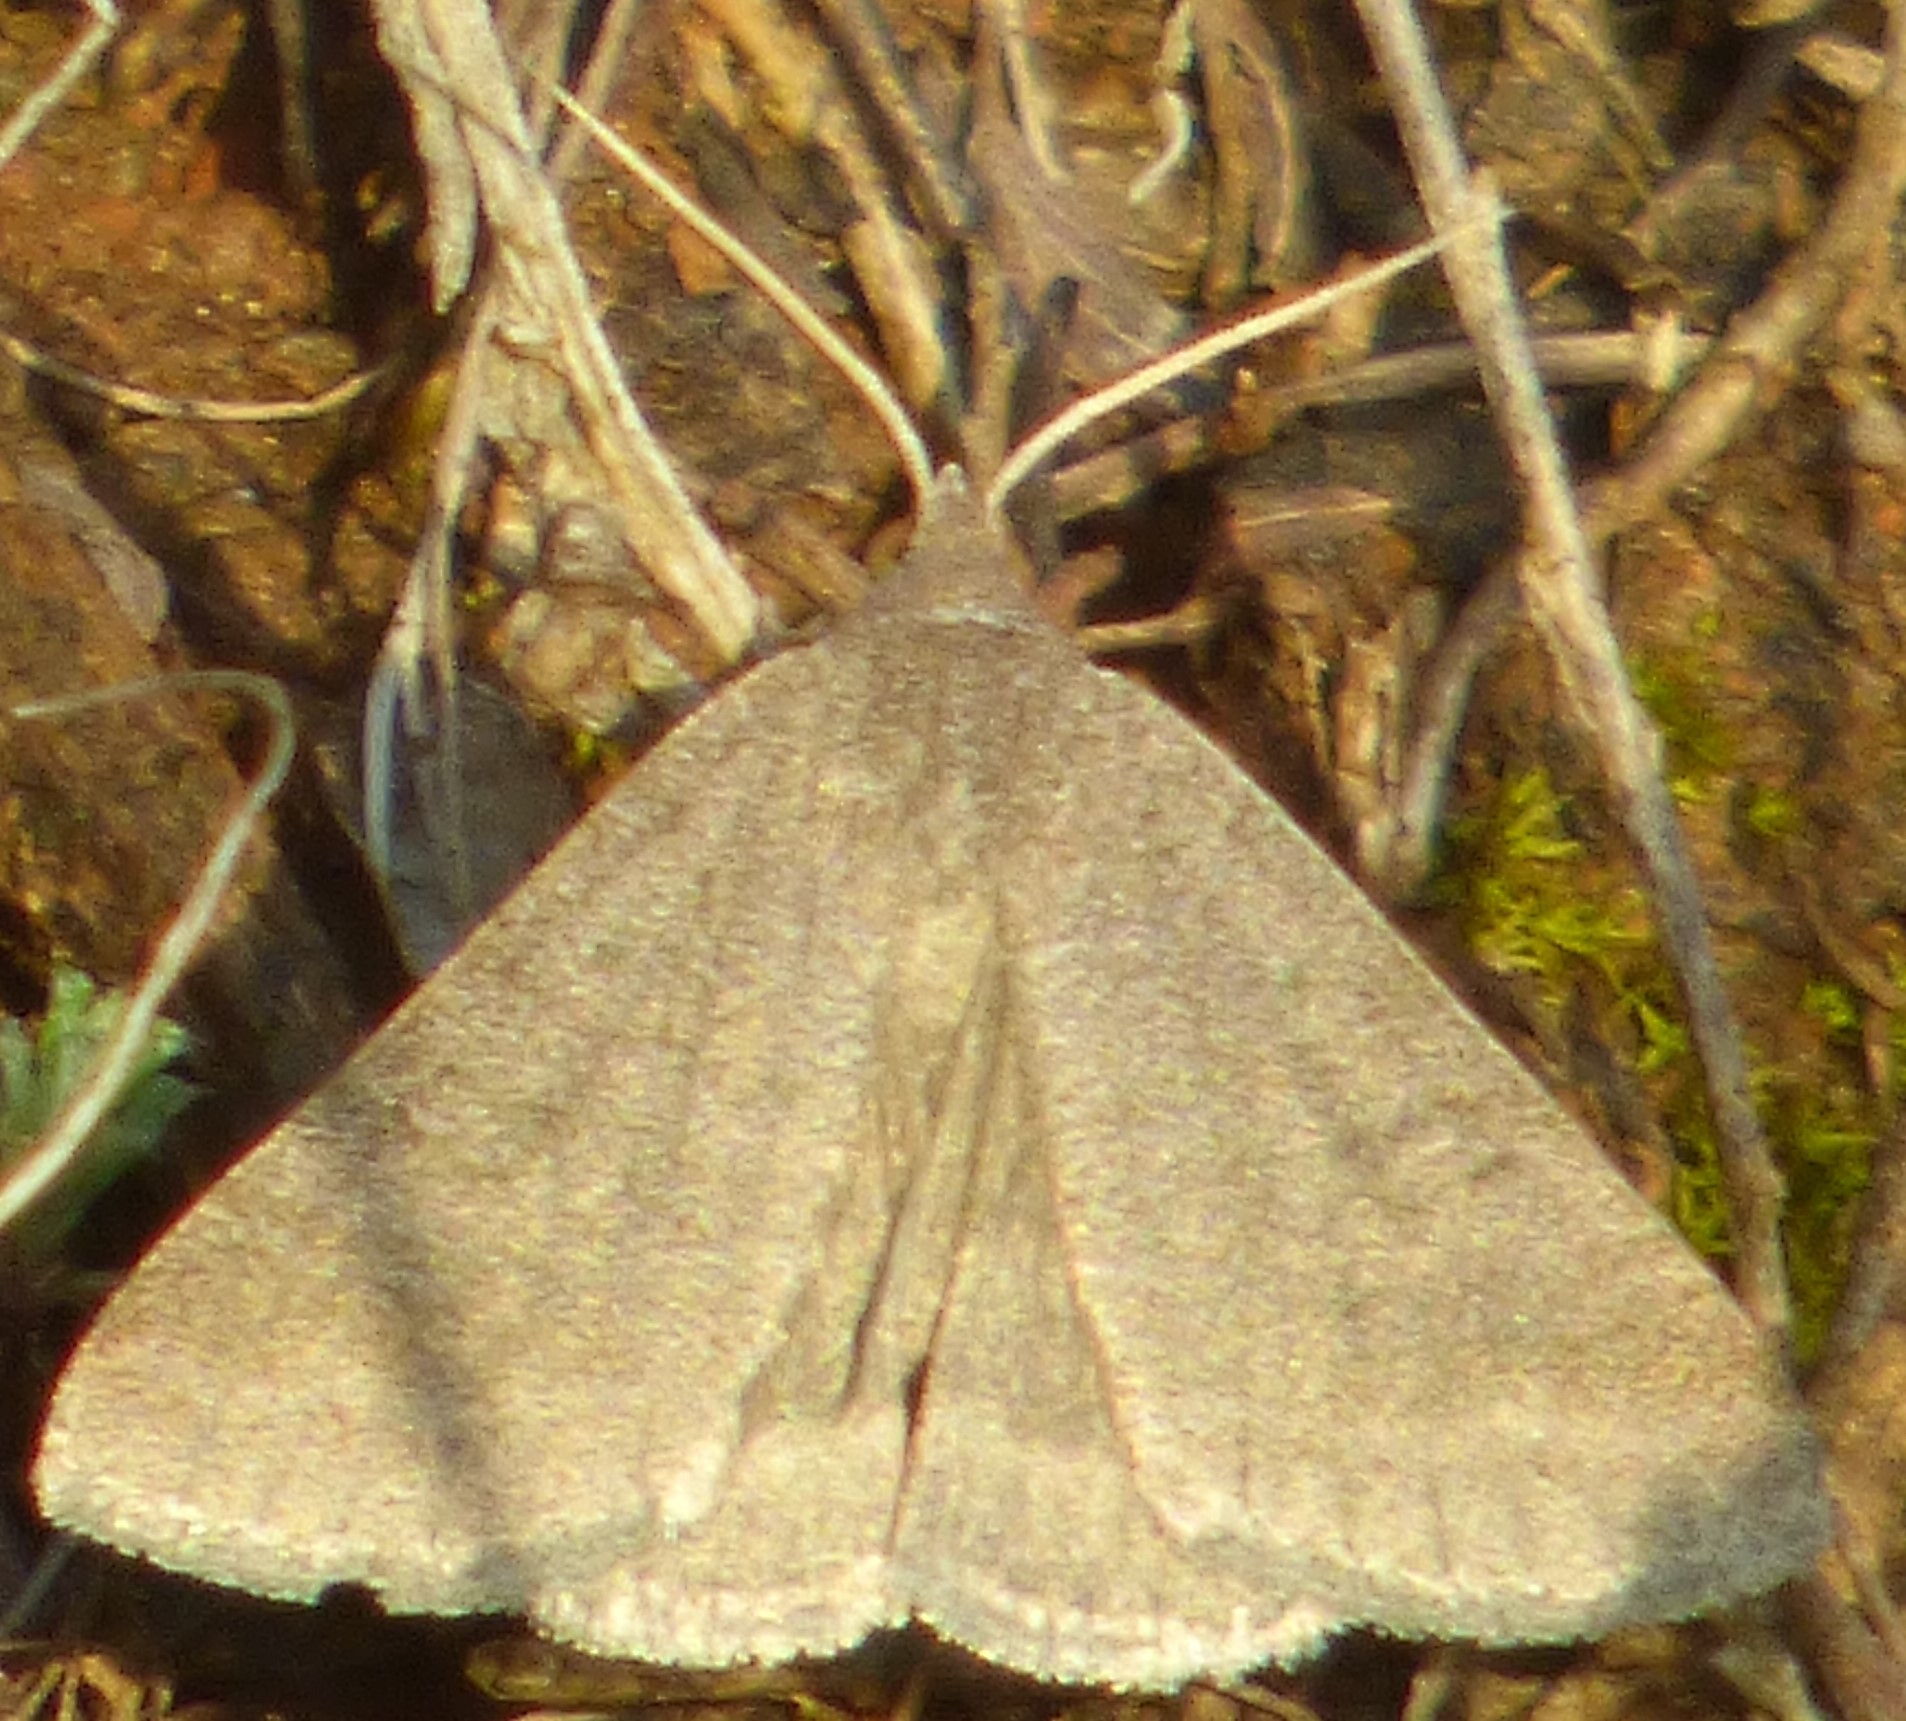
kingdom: Animalia
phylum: Arthropoda
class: Insecta
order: Lepidoptera
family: Erebidae
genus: Caenurgia
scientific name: Caenurgia chloropha
